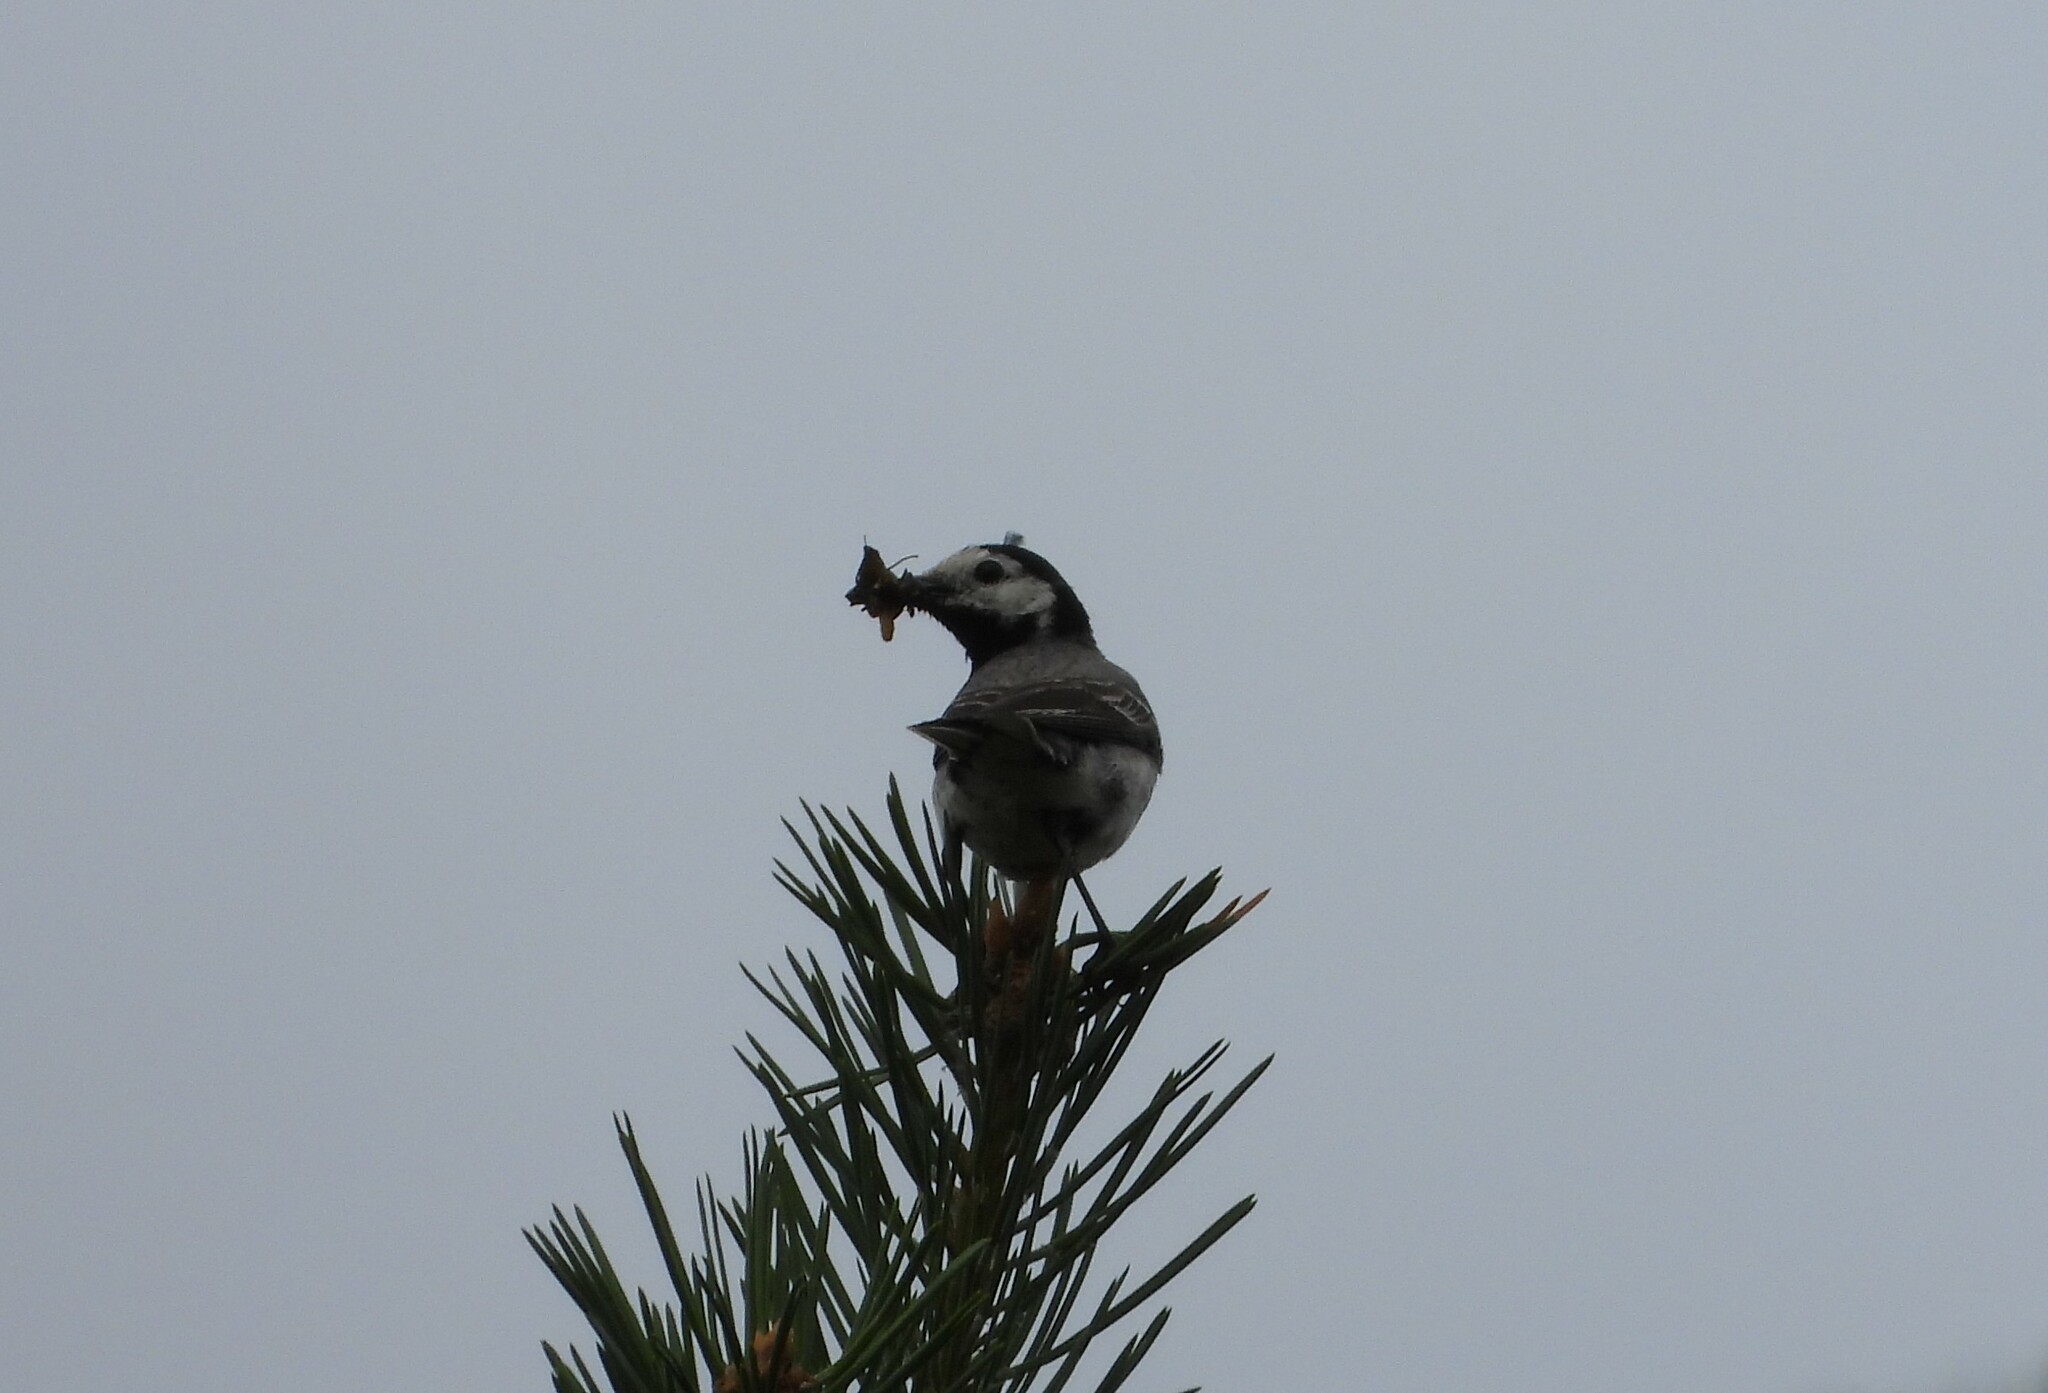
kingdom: Animalia
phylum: Chordata
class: Aves
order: Passeriformes
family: Motacillidae
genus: Motacilla
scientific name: Motacilla alba
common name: White wagtail
